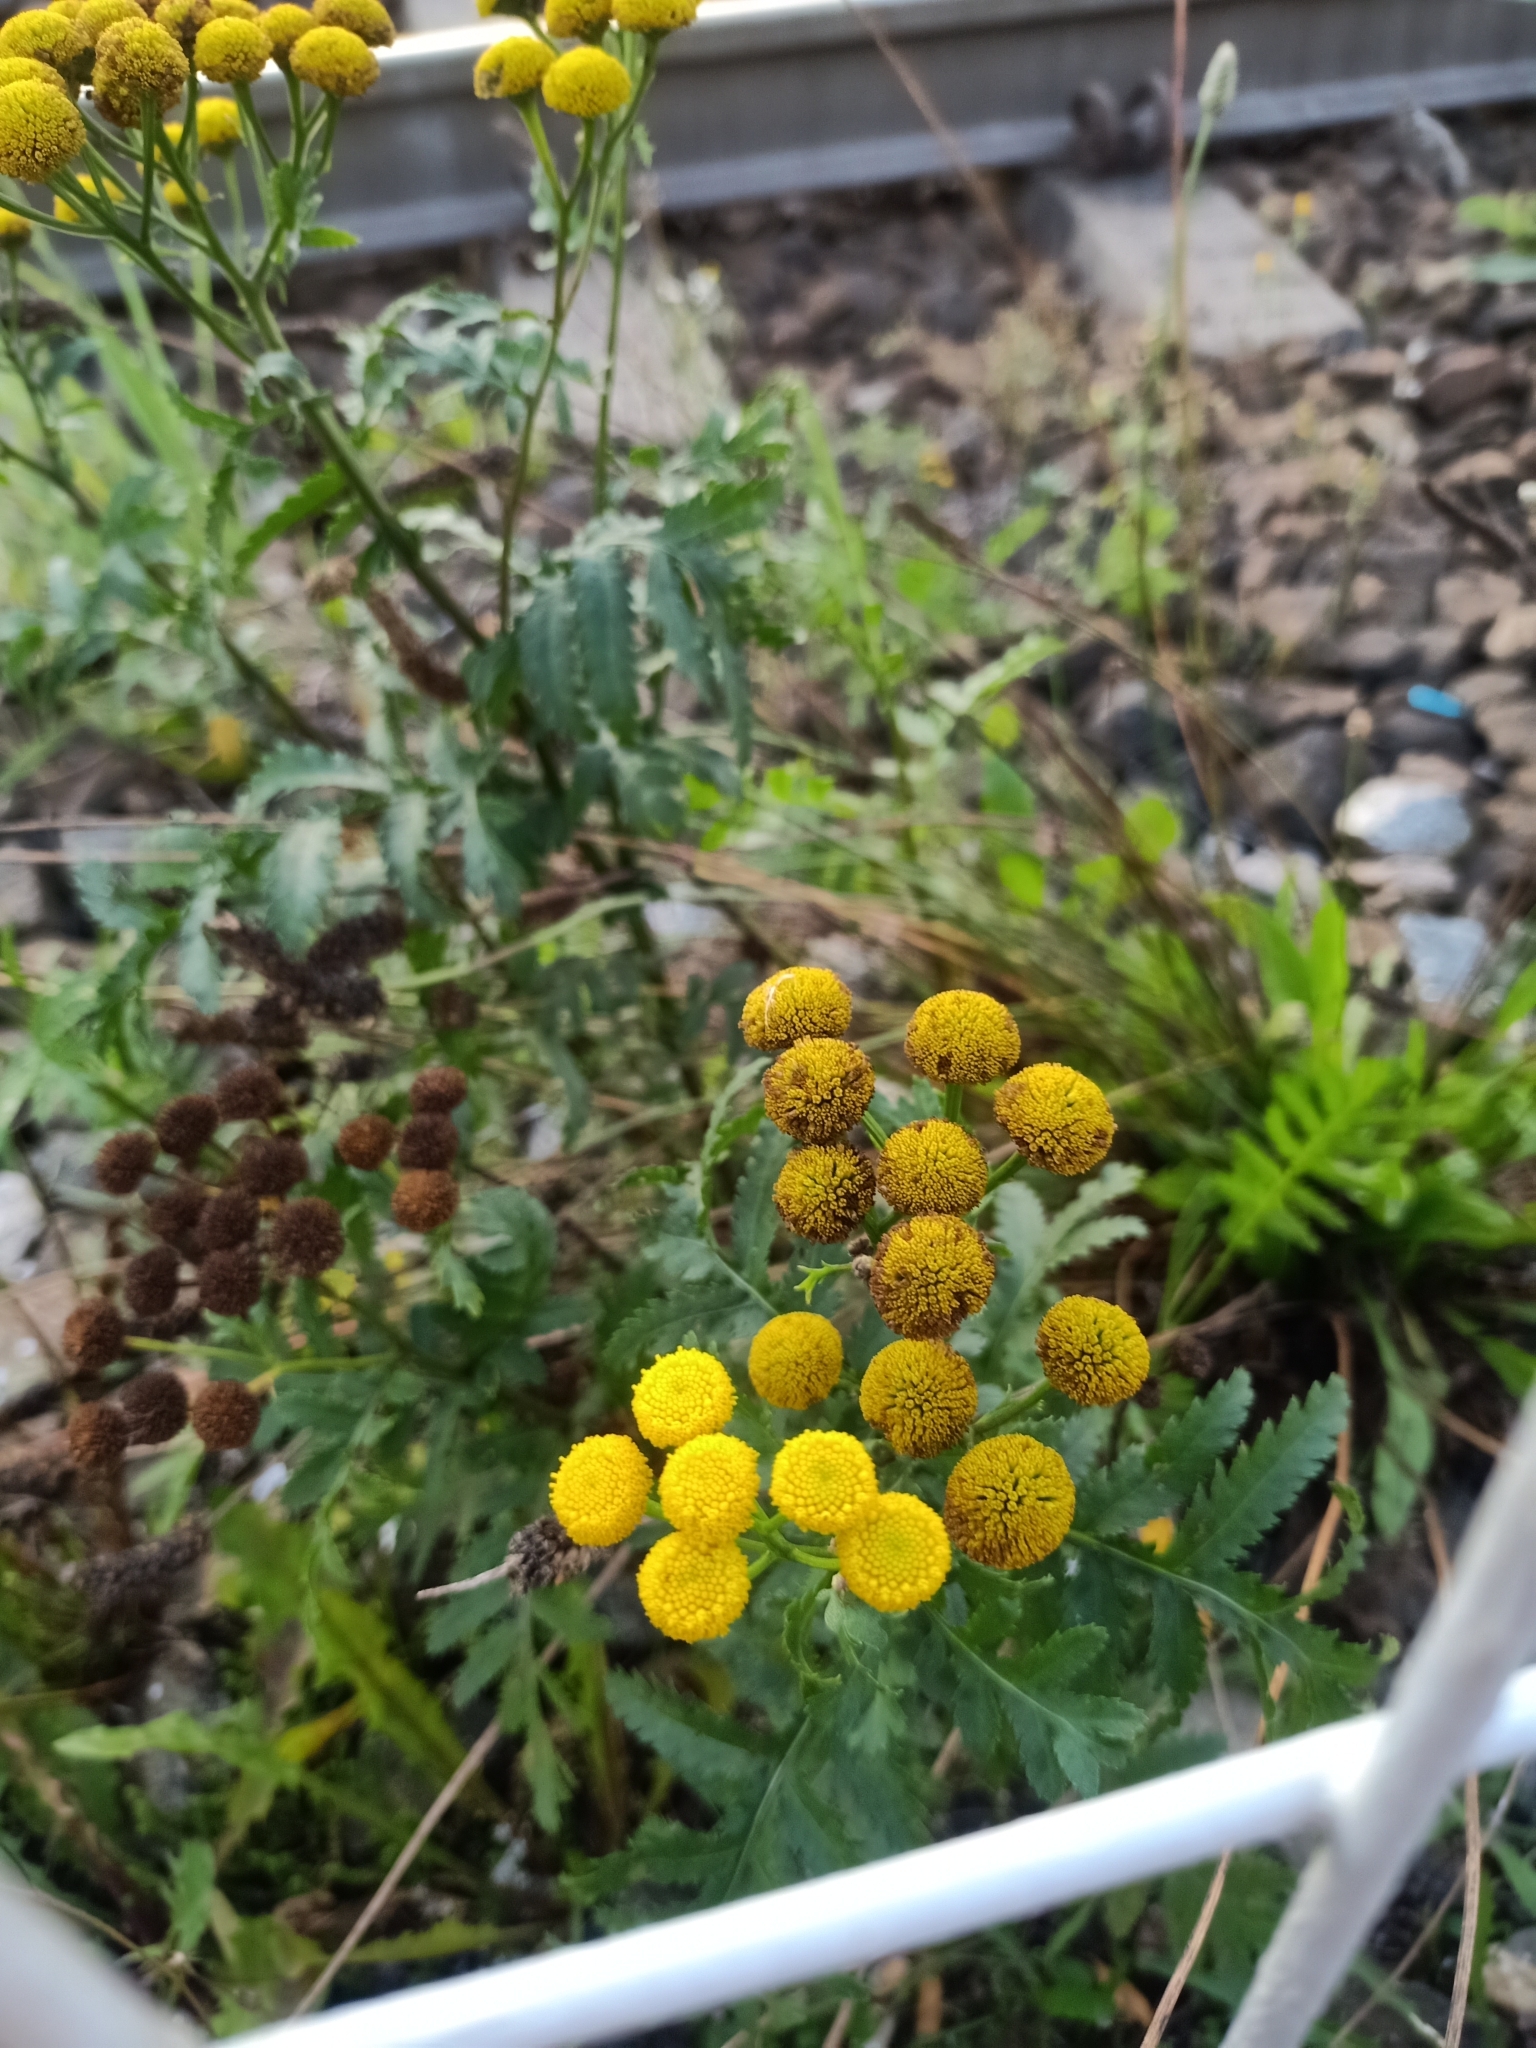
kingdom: Plantae
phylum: Tracheophyta
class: Magnoliopsida
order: Asterales
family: Asteraceae
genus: Tanacetum
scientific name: Tanacetum vulgare
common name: Common tansy
